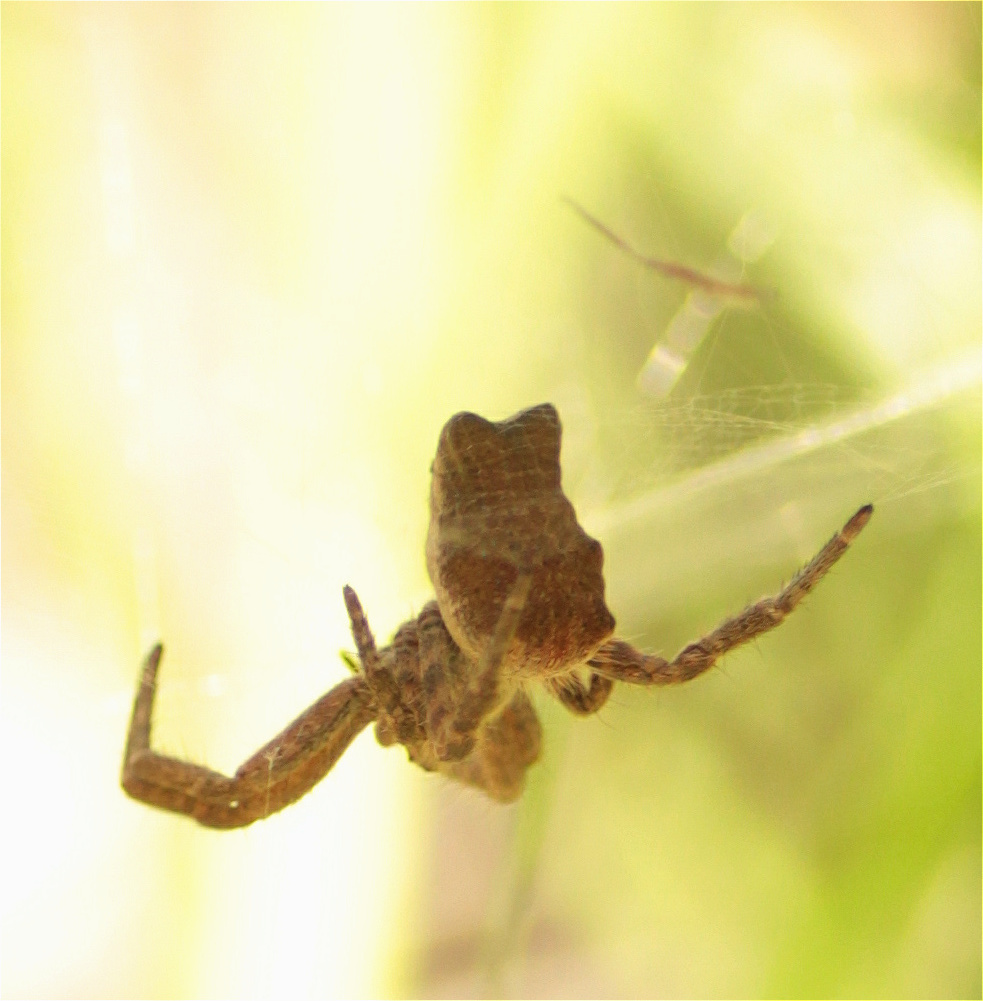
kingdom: Animalia
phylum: Arthropoda
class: Arachnida
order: Araneae
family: Araneidae
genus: Cyrtophora
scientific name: Cyrtophora citricola
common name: Orb weavers
